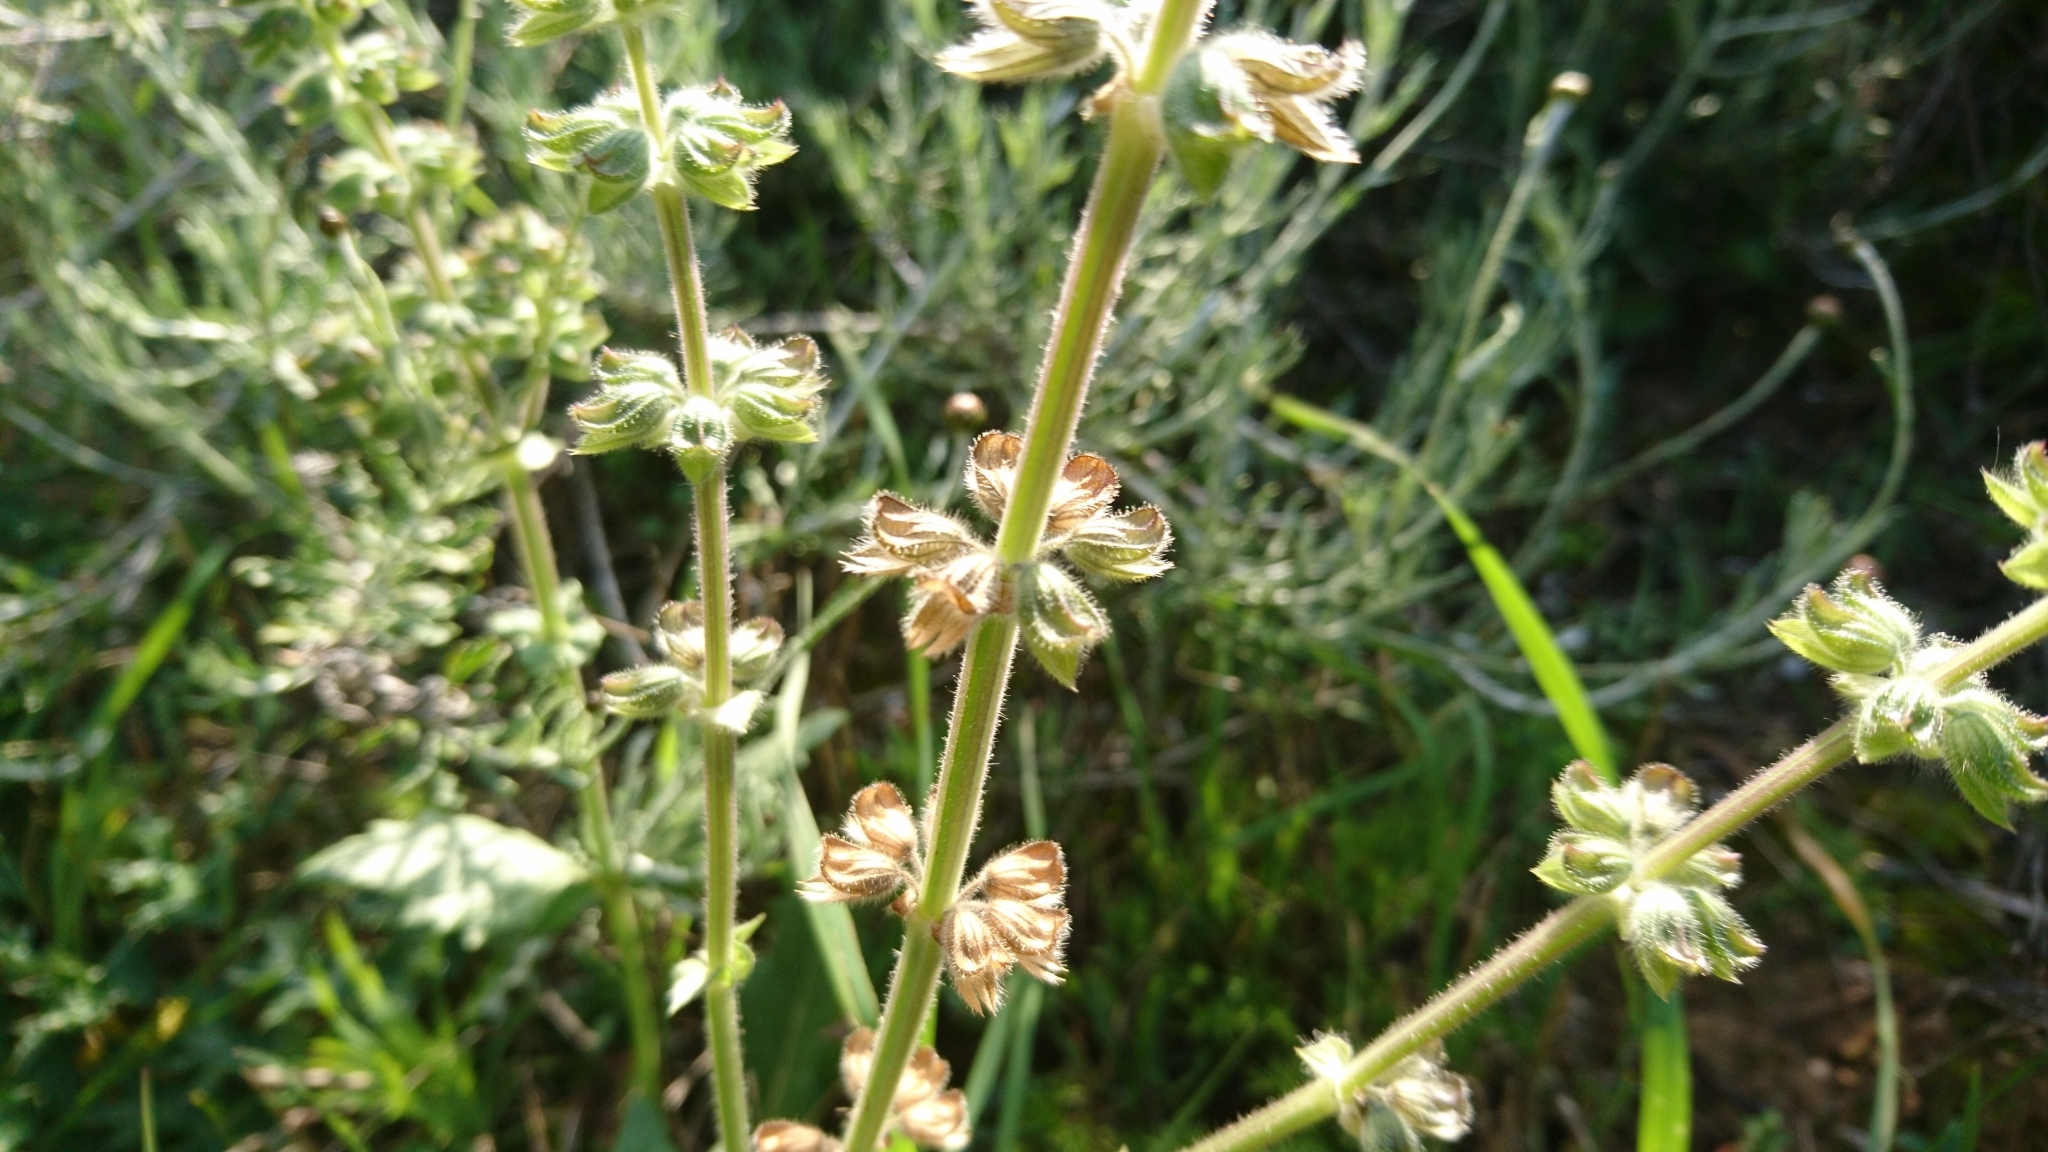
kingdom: Plantae
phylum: Tracheophyta
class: Magnoliopsida
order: Lamiales
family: Lamiaceae
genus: Salvia
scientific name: Salvia verbenaca
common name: Wild clary
